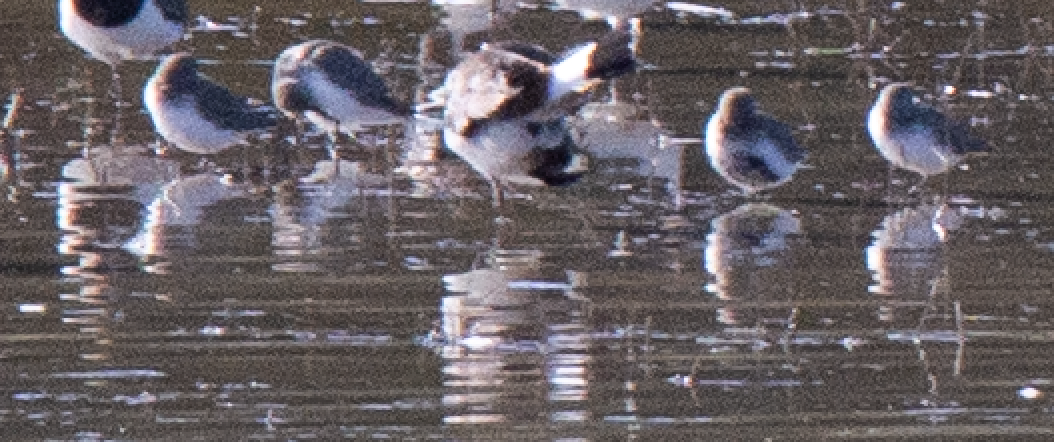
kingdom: Animalia
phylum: Chordata
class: Aves
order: Charadriiformes
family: Scolopacidae
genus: Calidris
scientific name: Calidris alpina
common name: Dunlin
